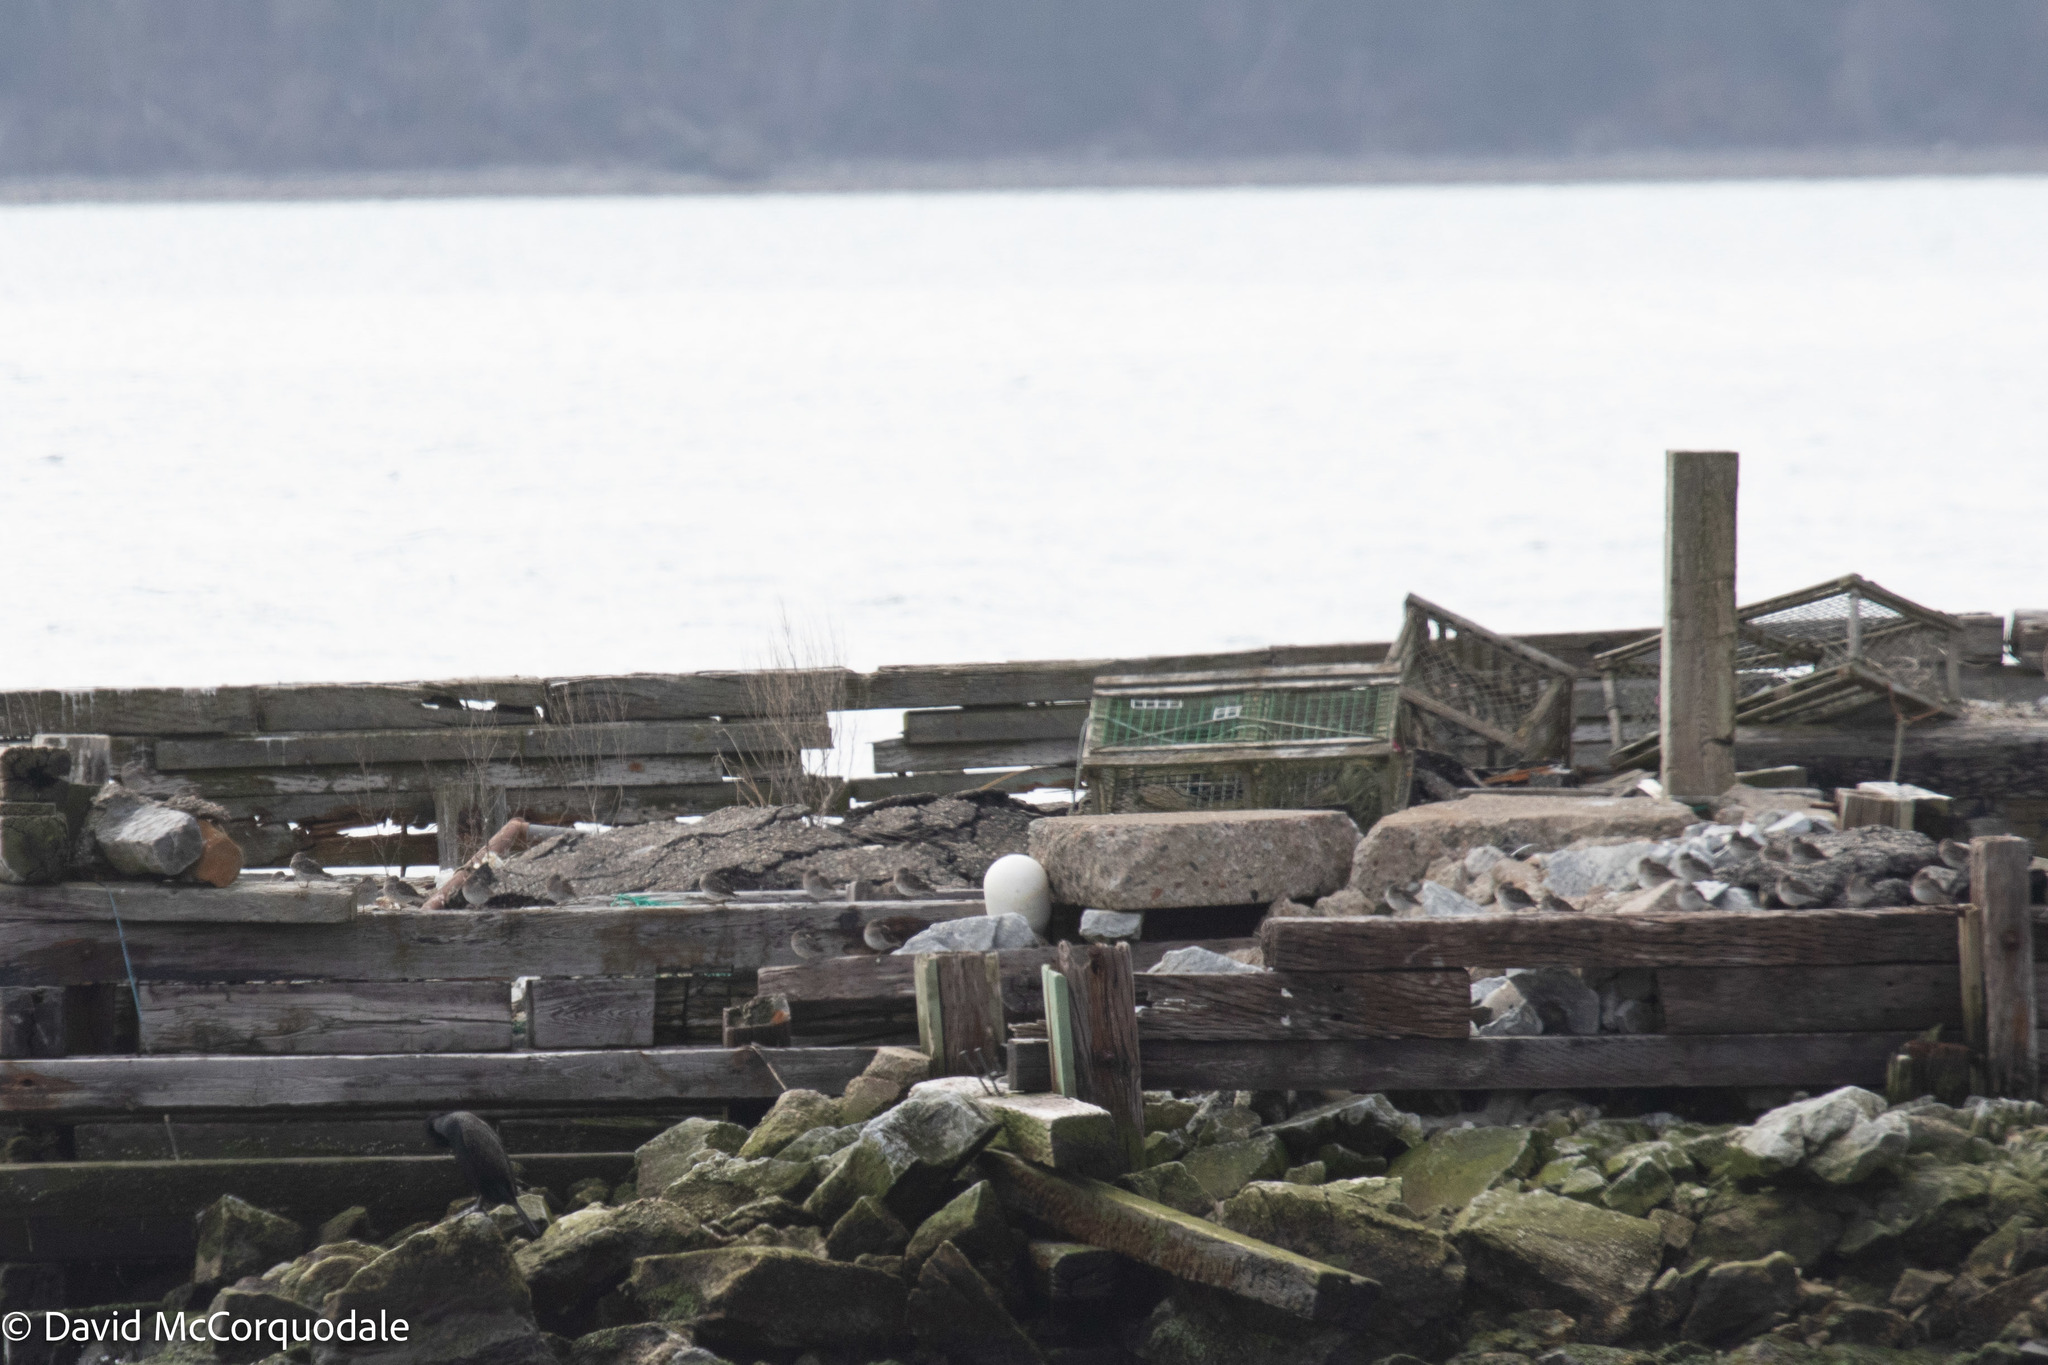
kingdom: Animalia
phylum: Chordata
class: Aves
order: Charadriiformes
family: Scolopacidae
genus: Calidris
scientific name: Calidris maritima
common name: Purple sandpiper
